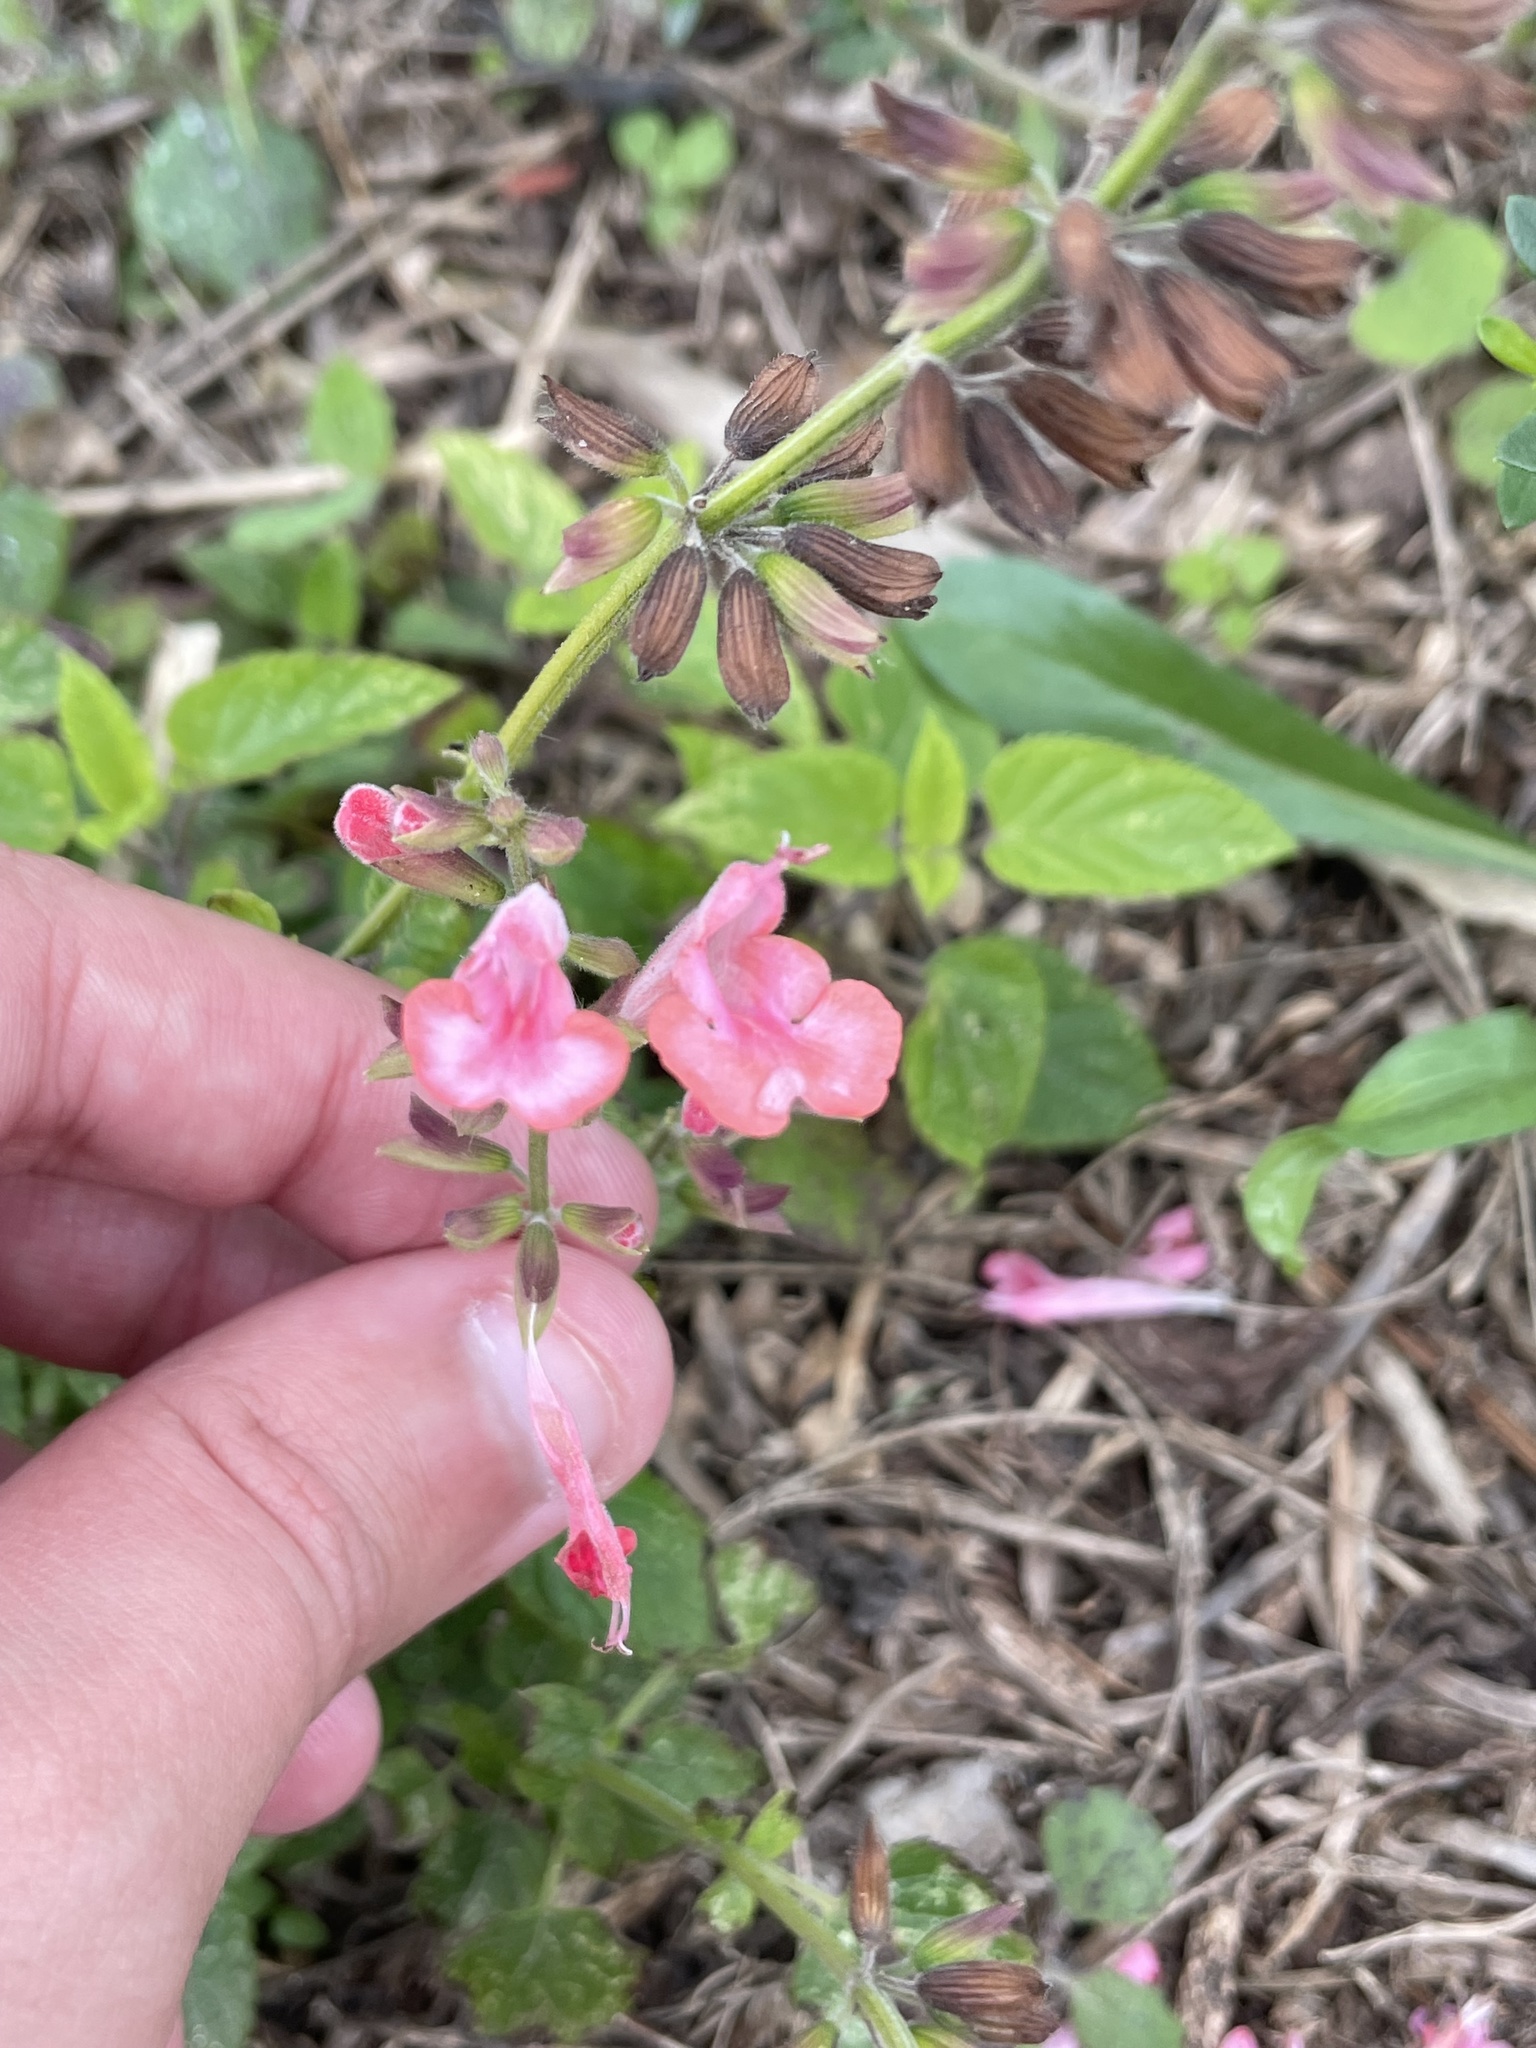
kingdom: Plantae
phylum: Tracheophyta
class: Magnoliopsida
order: Lamiales
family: Lamiaceae
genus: Salvia
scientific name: Salvia coccinea
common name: Blood sage
